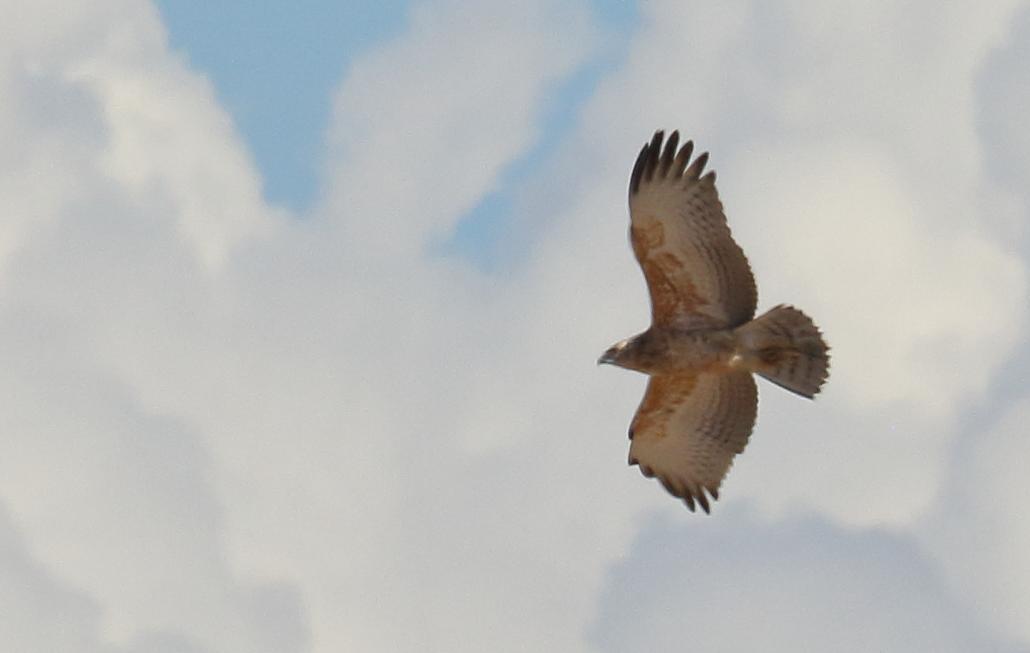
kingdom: Animalia
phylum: Chordata
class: Aves
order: Accipitriformes
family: Accipitridae
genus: Circaetus
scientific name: Circaetus pectoralis
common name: Black-chested snake eagle
